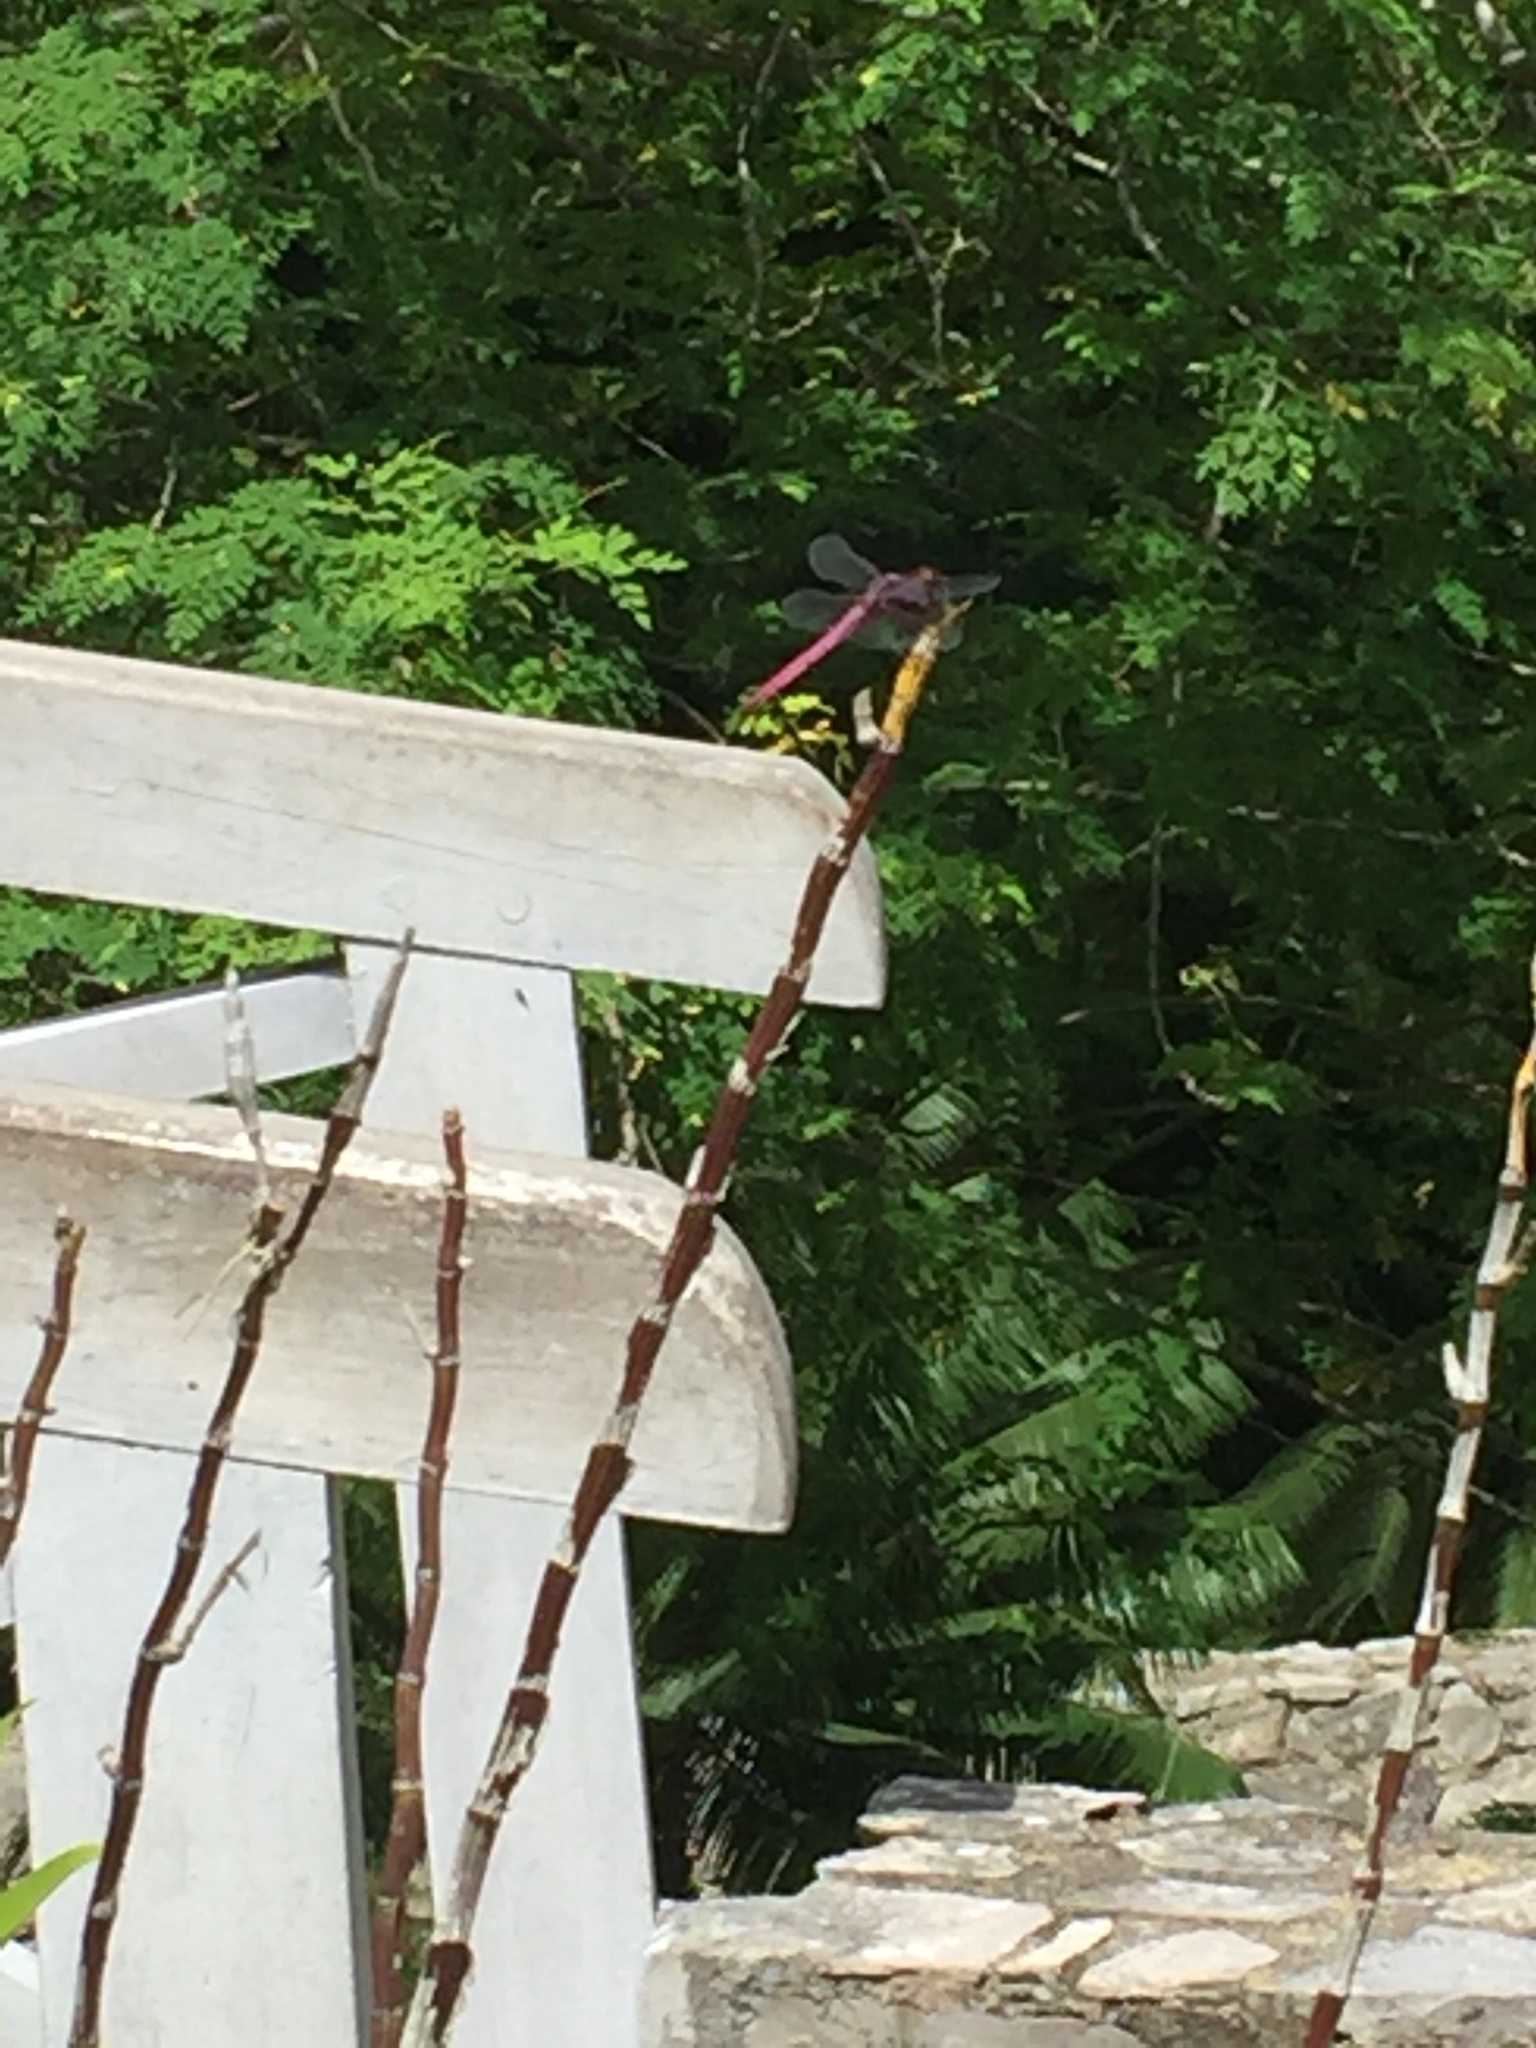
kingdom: Animalia
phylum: Arthropoda
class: Insecta
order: Odonata
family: Libellulidae
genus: Orthemis
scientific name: Orthemis ferruginea
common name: Roseate skimmer
